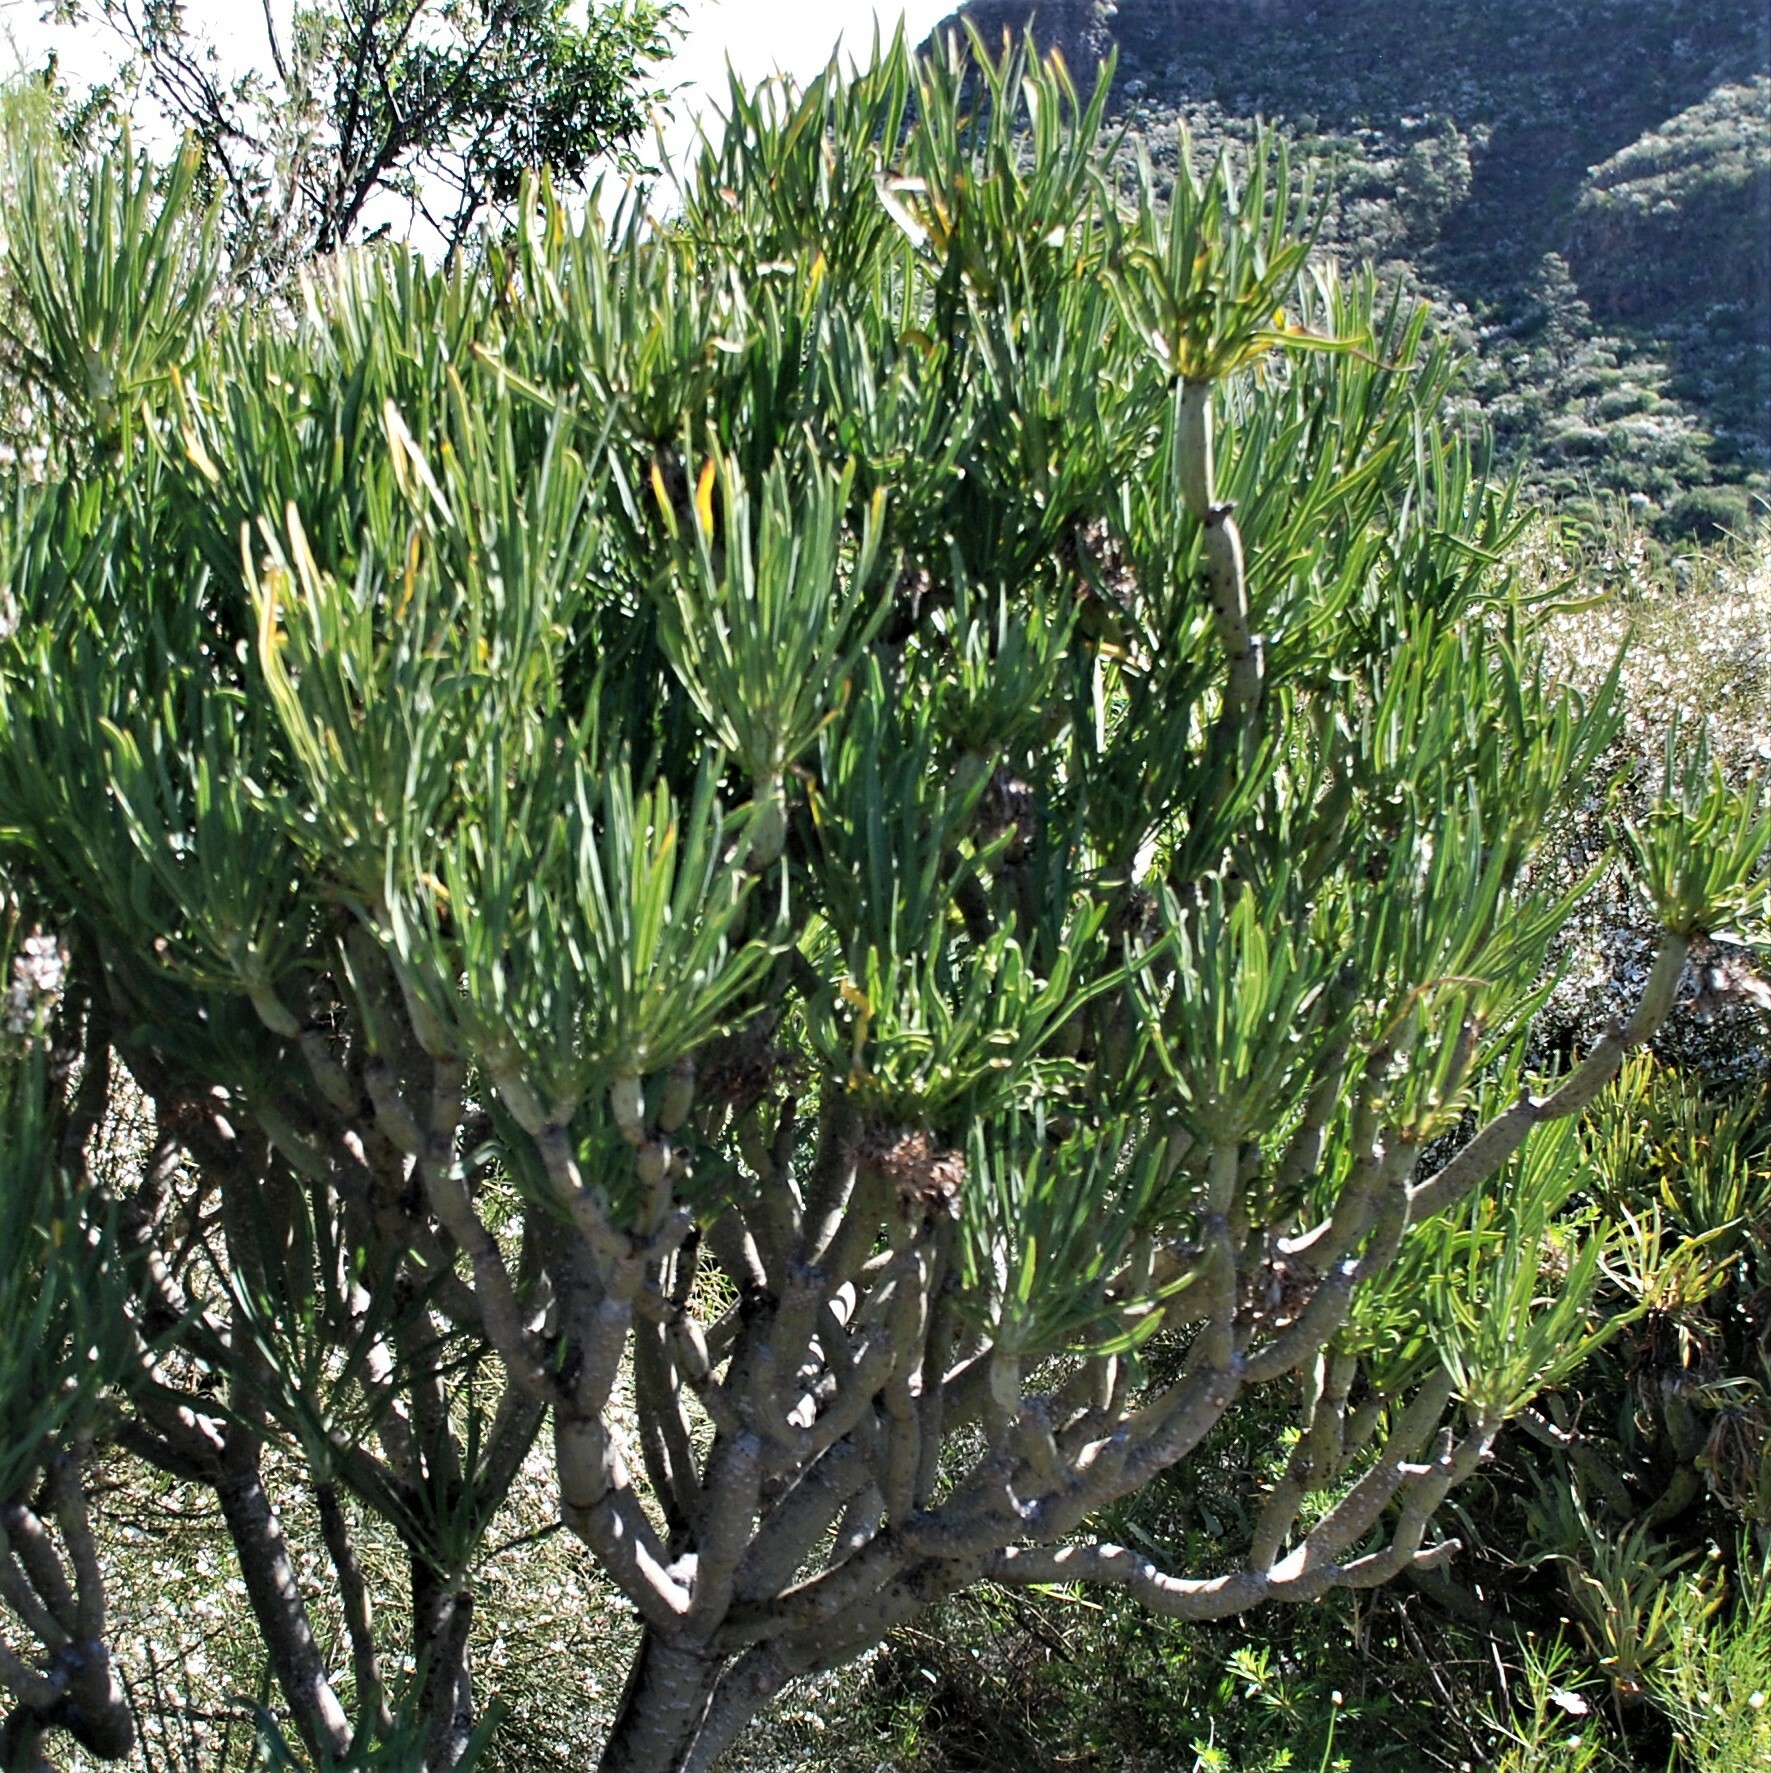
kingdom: Plantae
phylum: Tracheophyta
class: Magnoliopsida
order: Asterales
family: Asteraceae
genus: Kleinia
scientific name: Kleinia neriifolia
